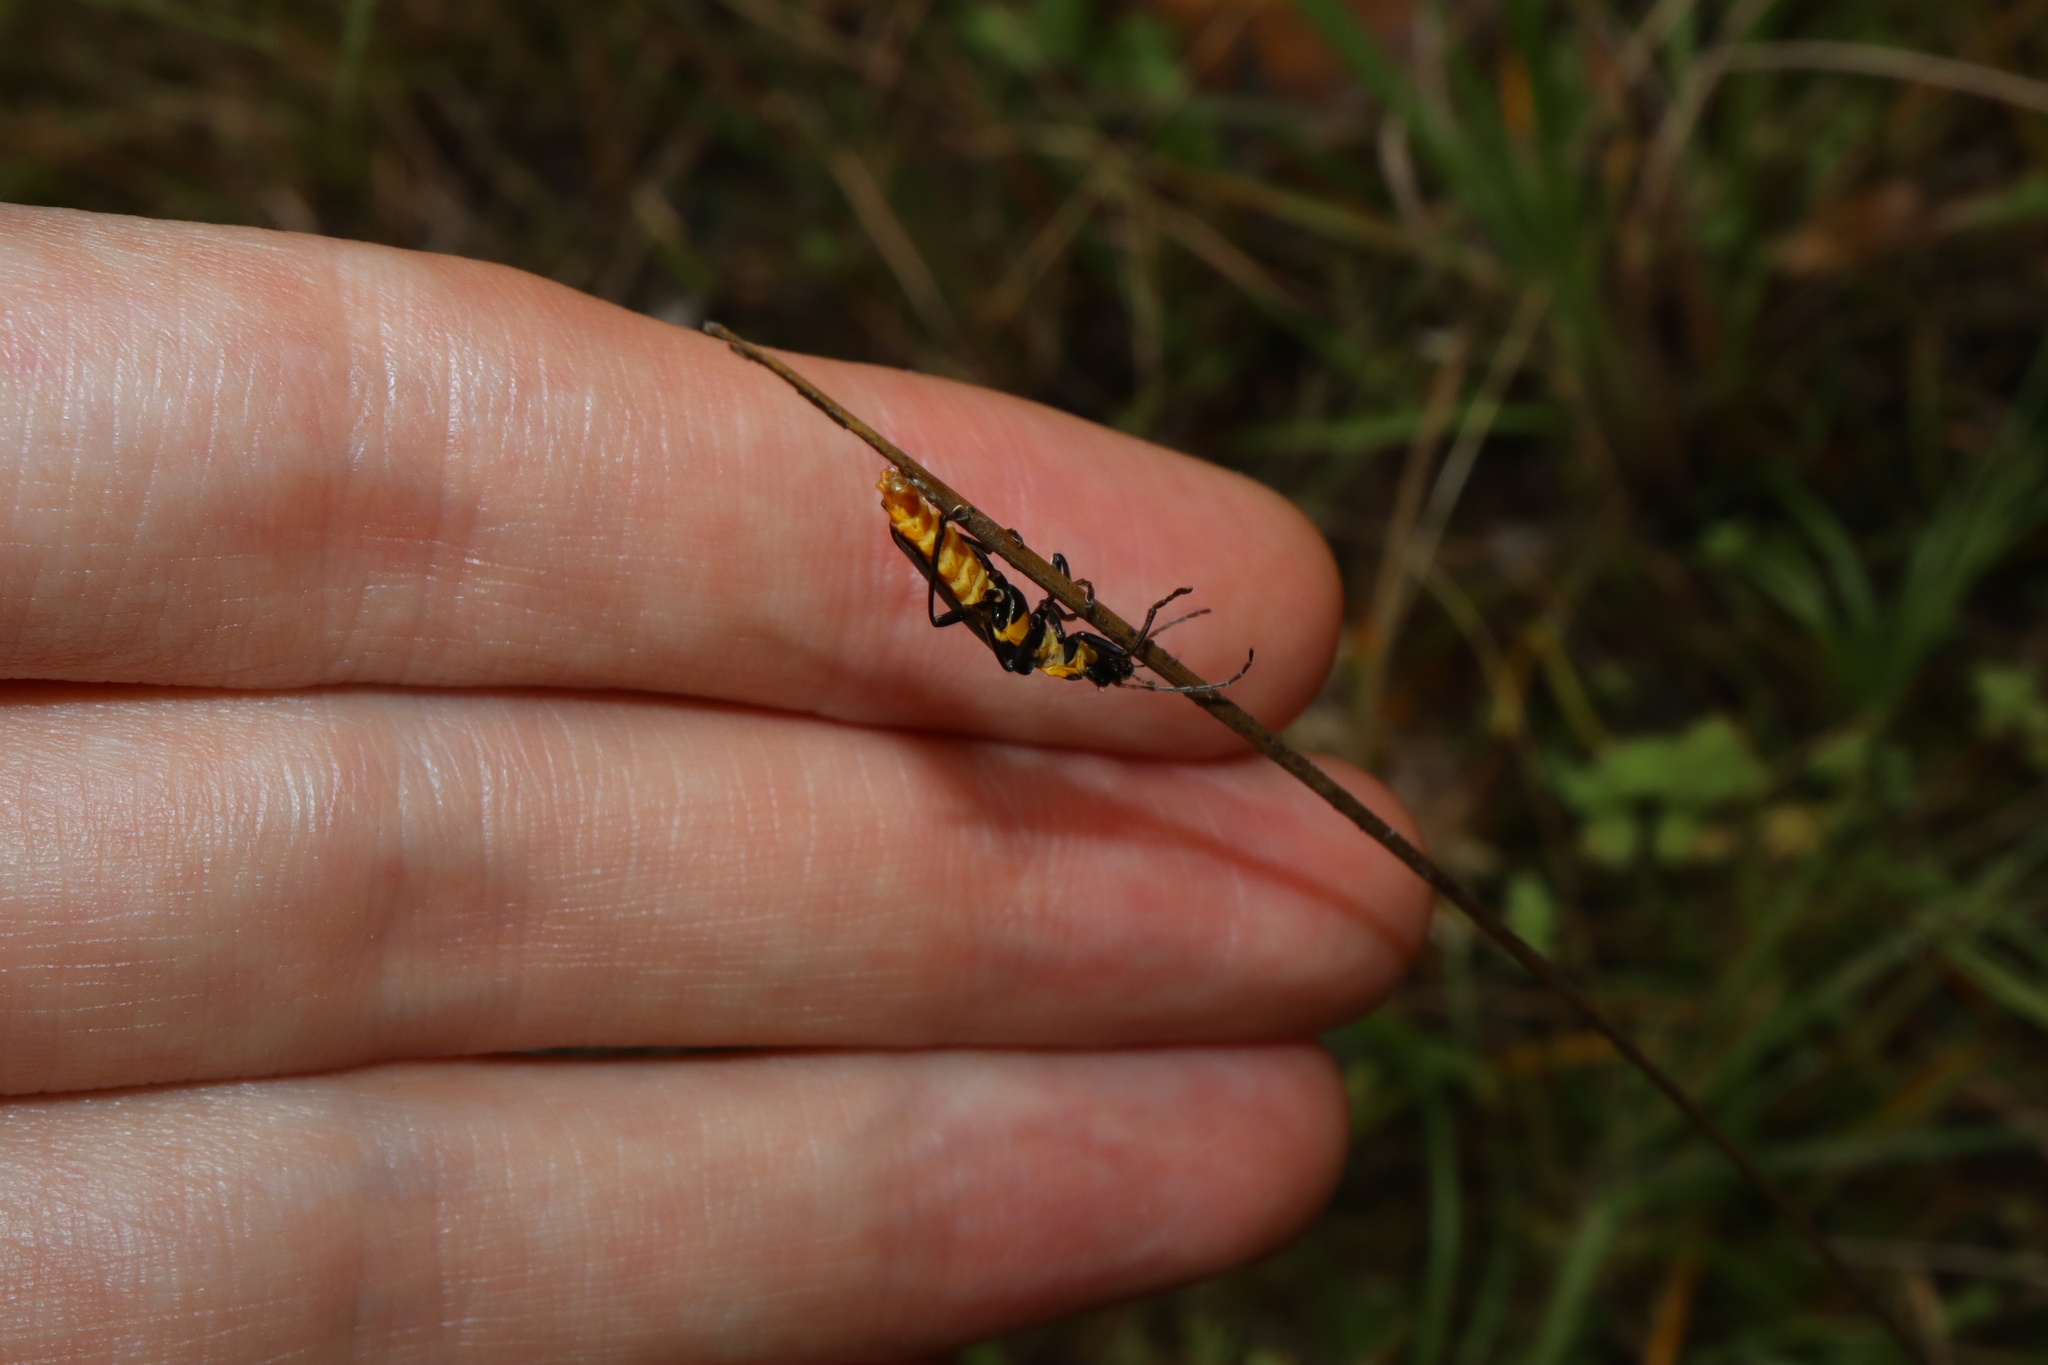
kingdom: Animalia
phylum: Arthropoda
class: Insecta
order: Coleoptera
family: Cantharidae
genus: Chauliognathus
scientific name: Chauliognathus
